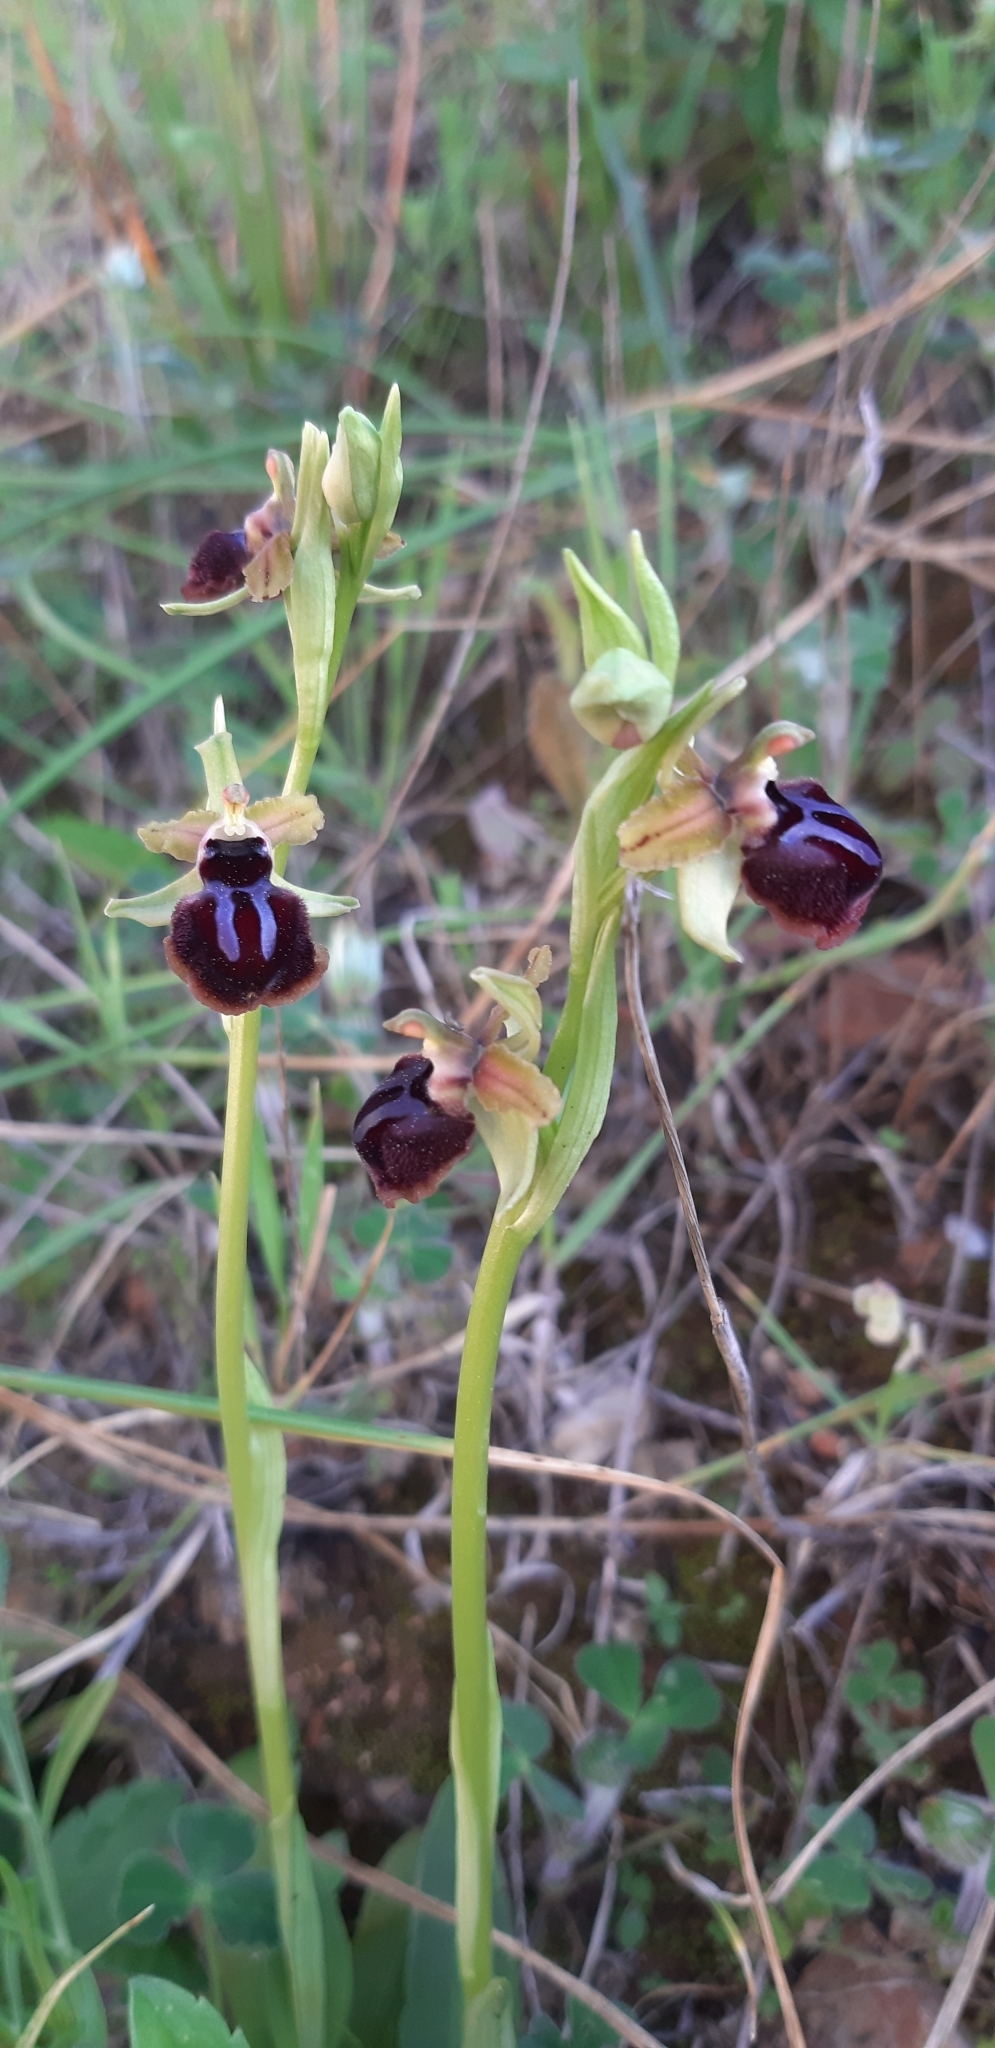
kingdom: Plantae
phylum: Tracheophyta
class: Liliopsida
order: Asparagales
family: Orchidaceae
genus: Ophrys
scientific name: Ophrys sphegodes
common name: Early spider-orchid
